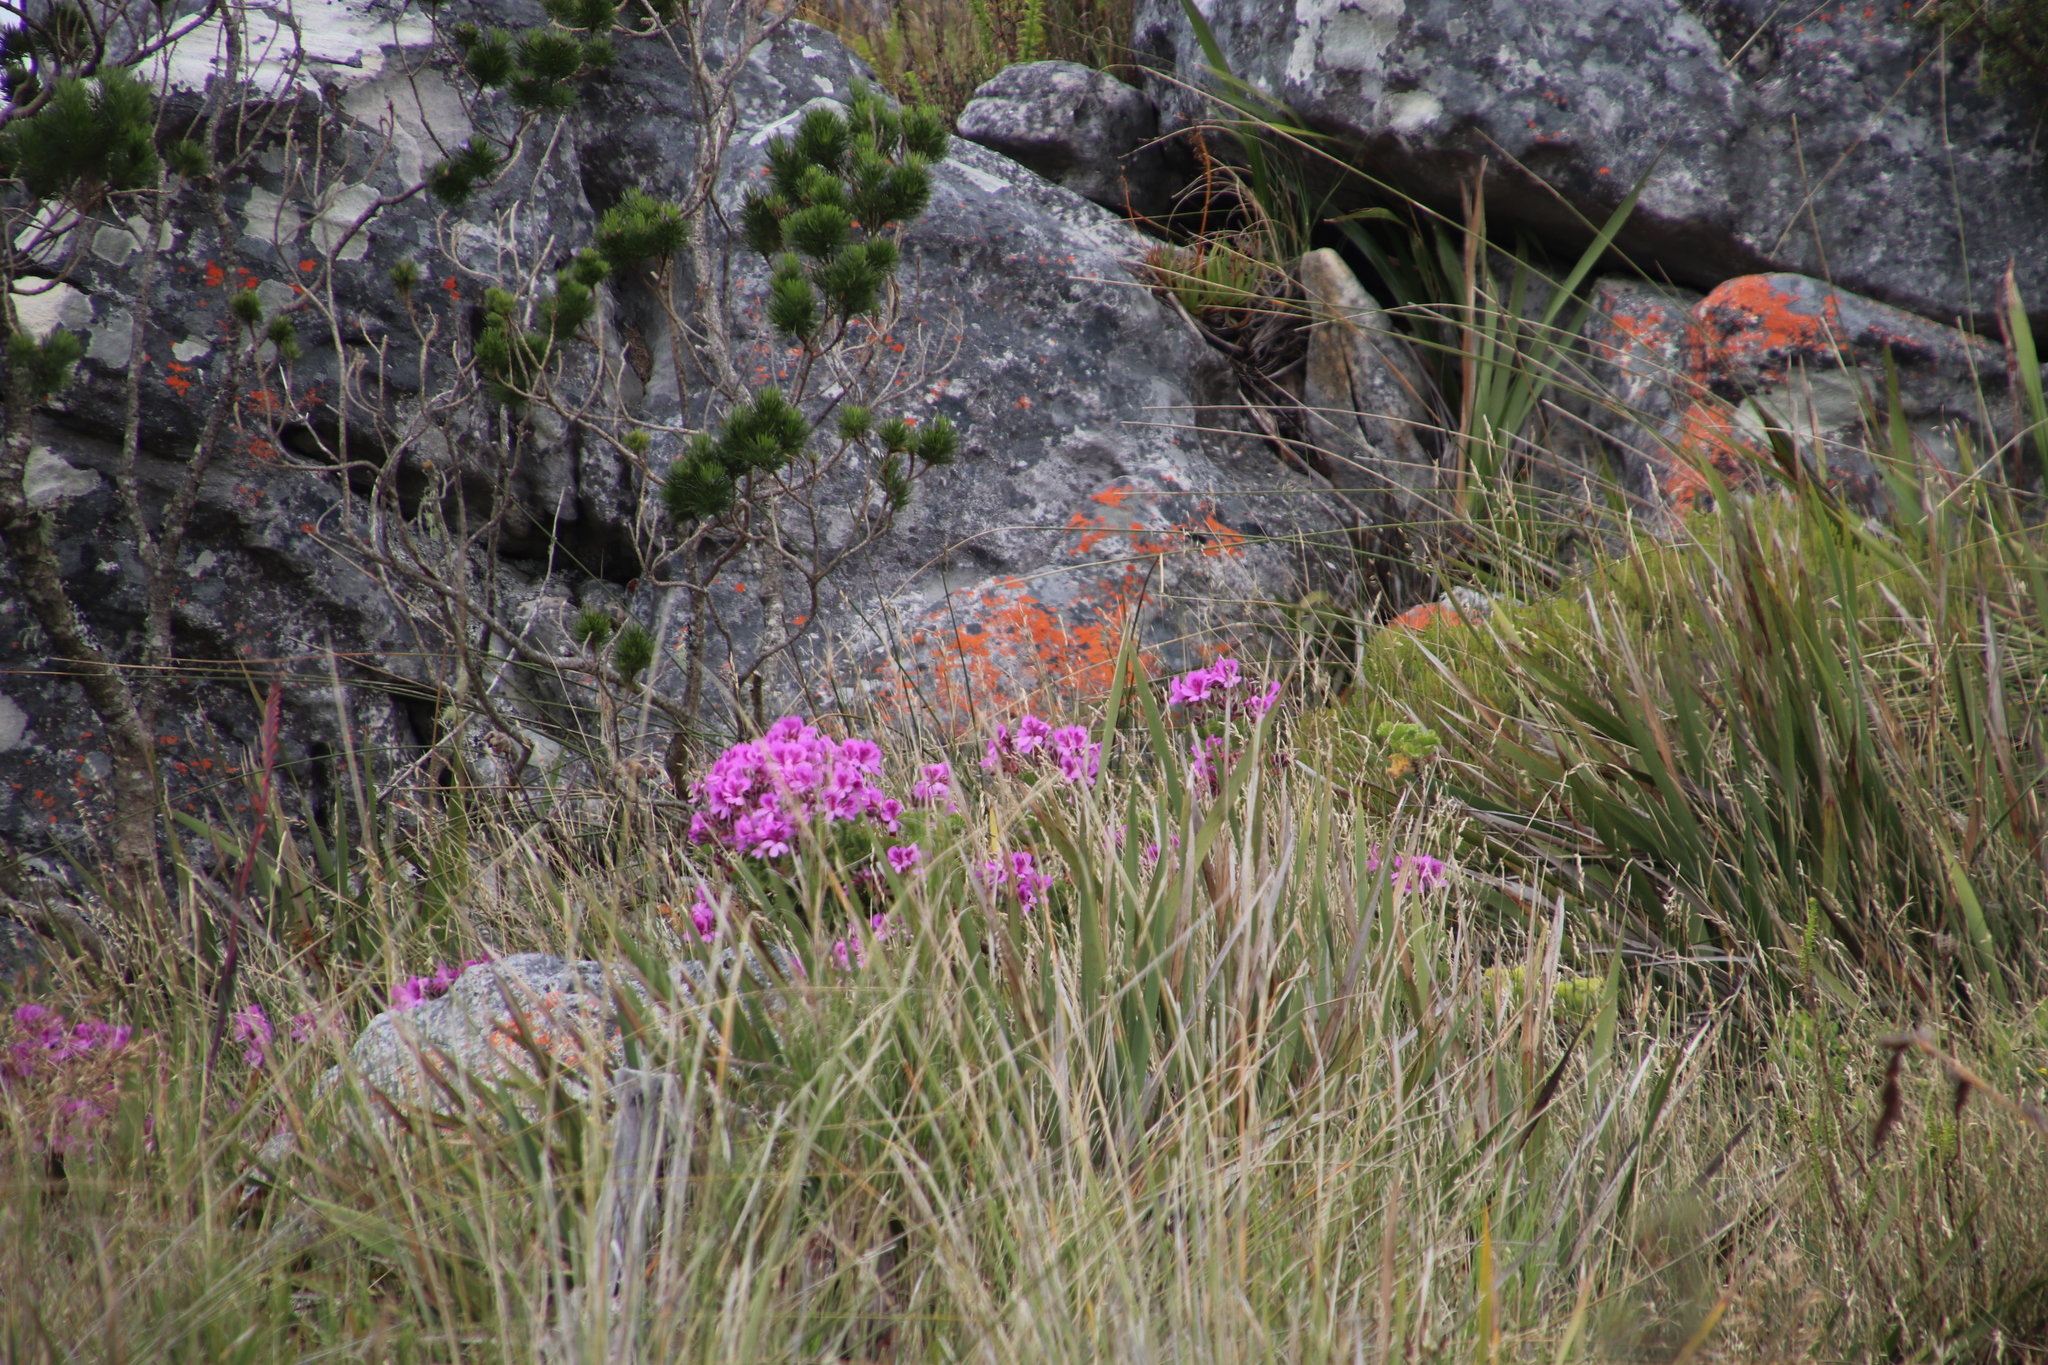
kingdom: Plantae
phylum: Tracheophyta
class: Magnoliopsida
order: Geraniales
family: Geraniaceae
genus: Pelargonium
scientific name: Pelargonium cucullatum
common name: Tree pelargonium
